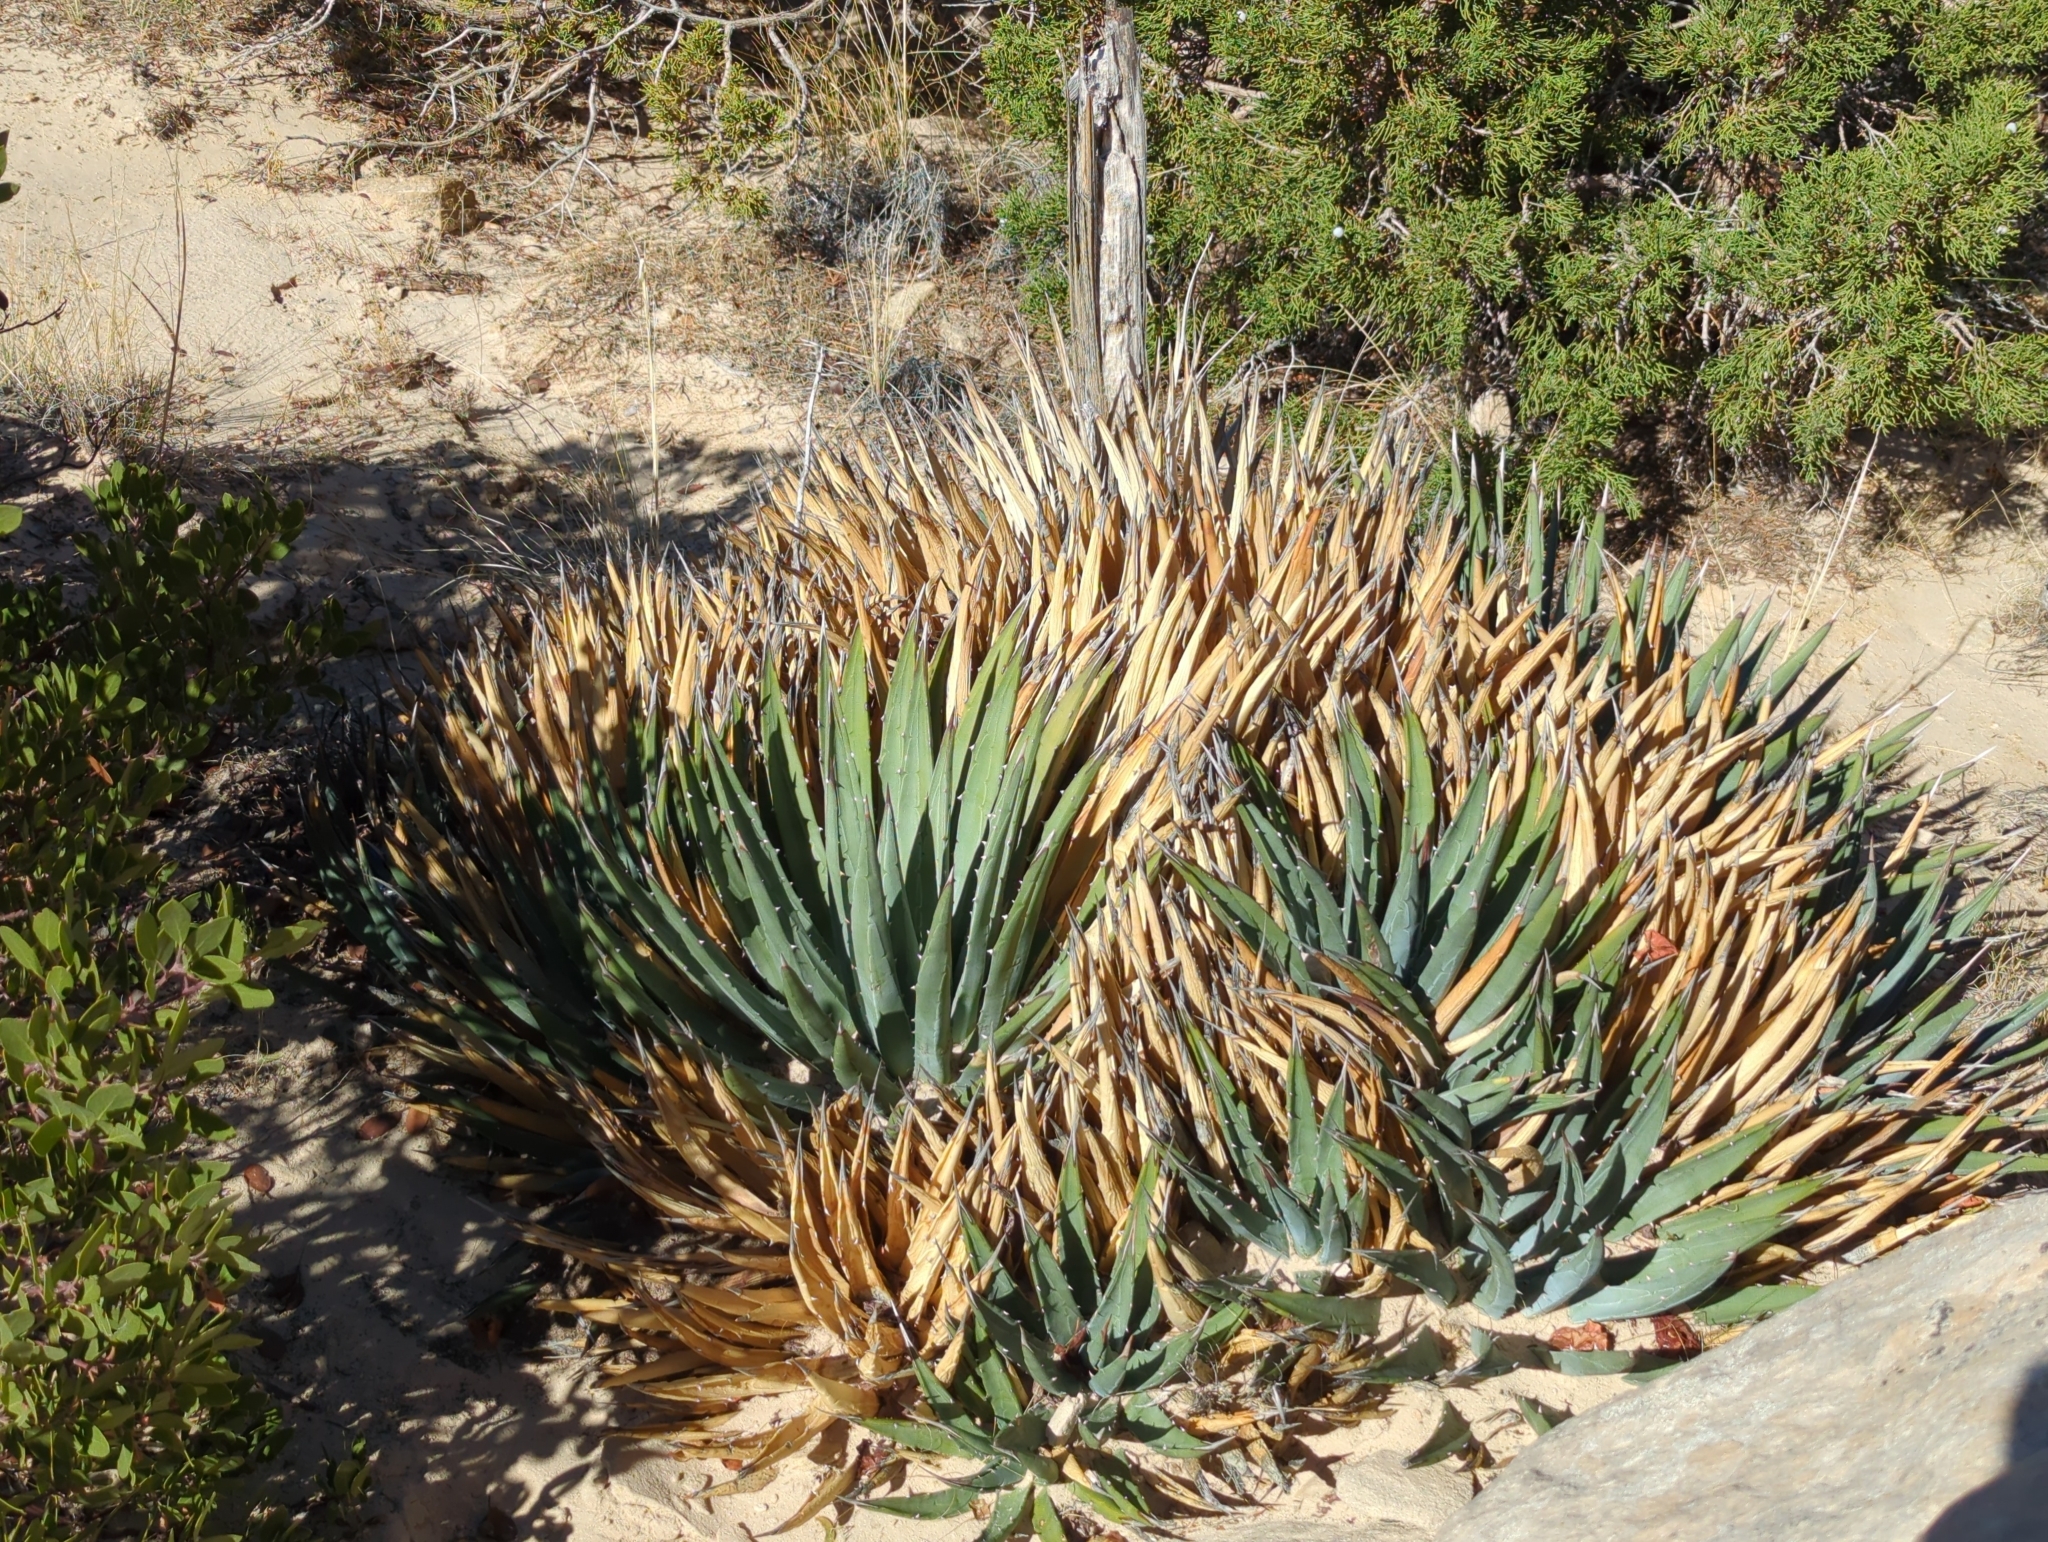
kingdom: Plantae
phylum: Tracheophyta
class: Liliopsida
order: Asparagales
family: Asparagaceae
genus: Agave
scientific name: Agave utahensis
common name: Utah agave
